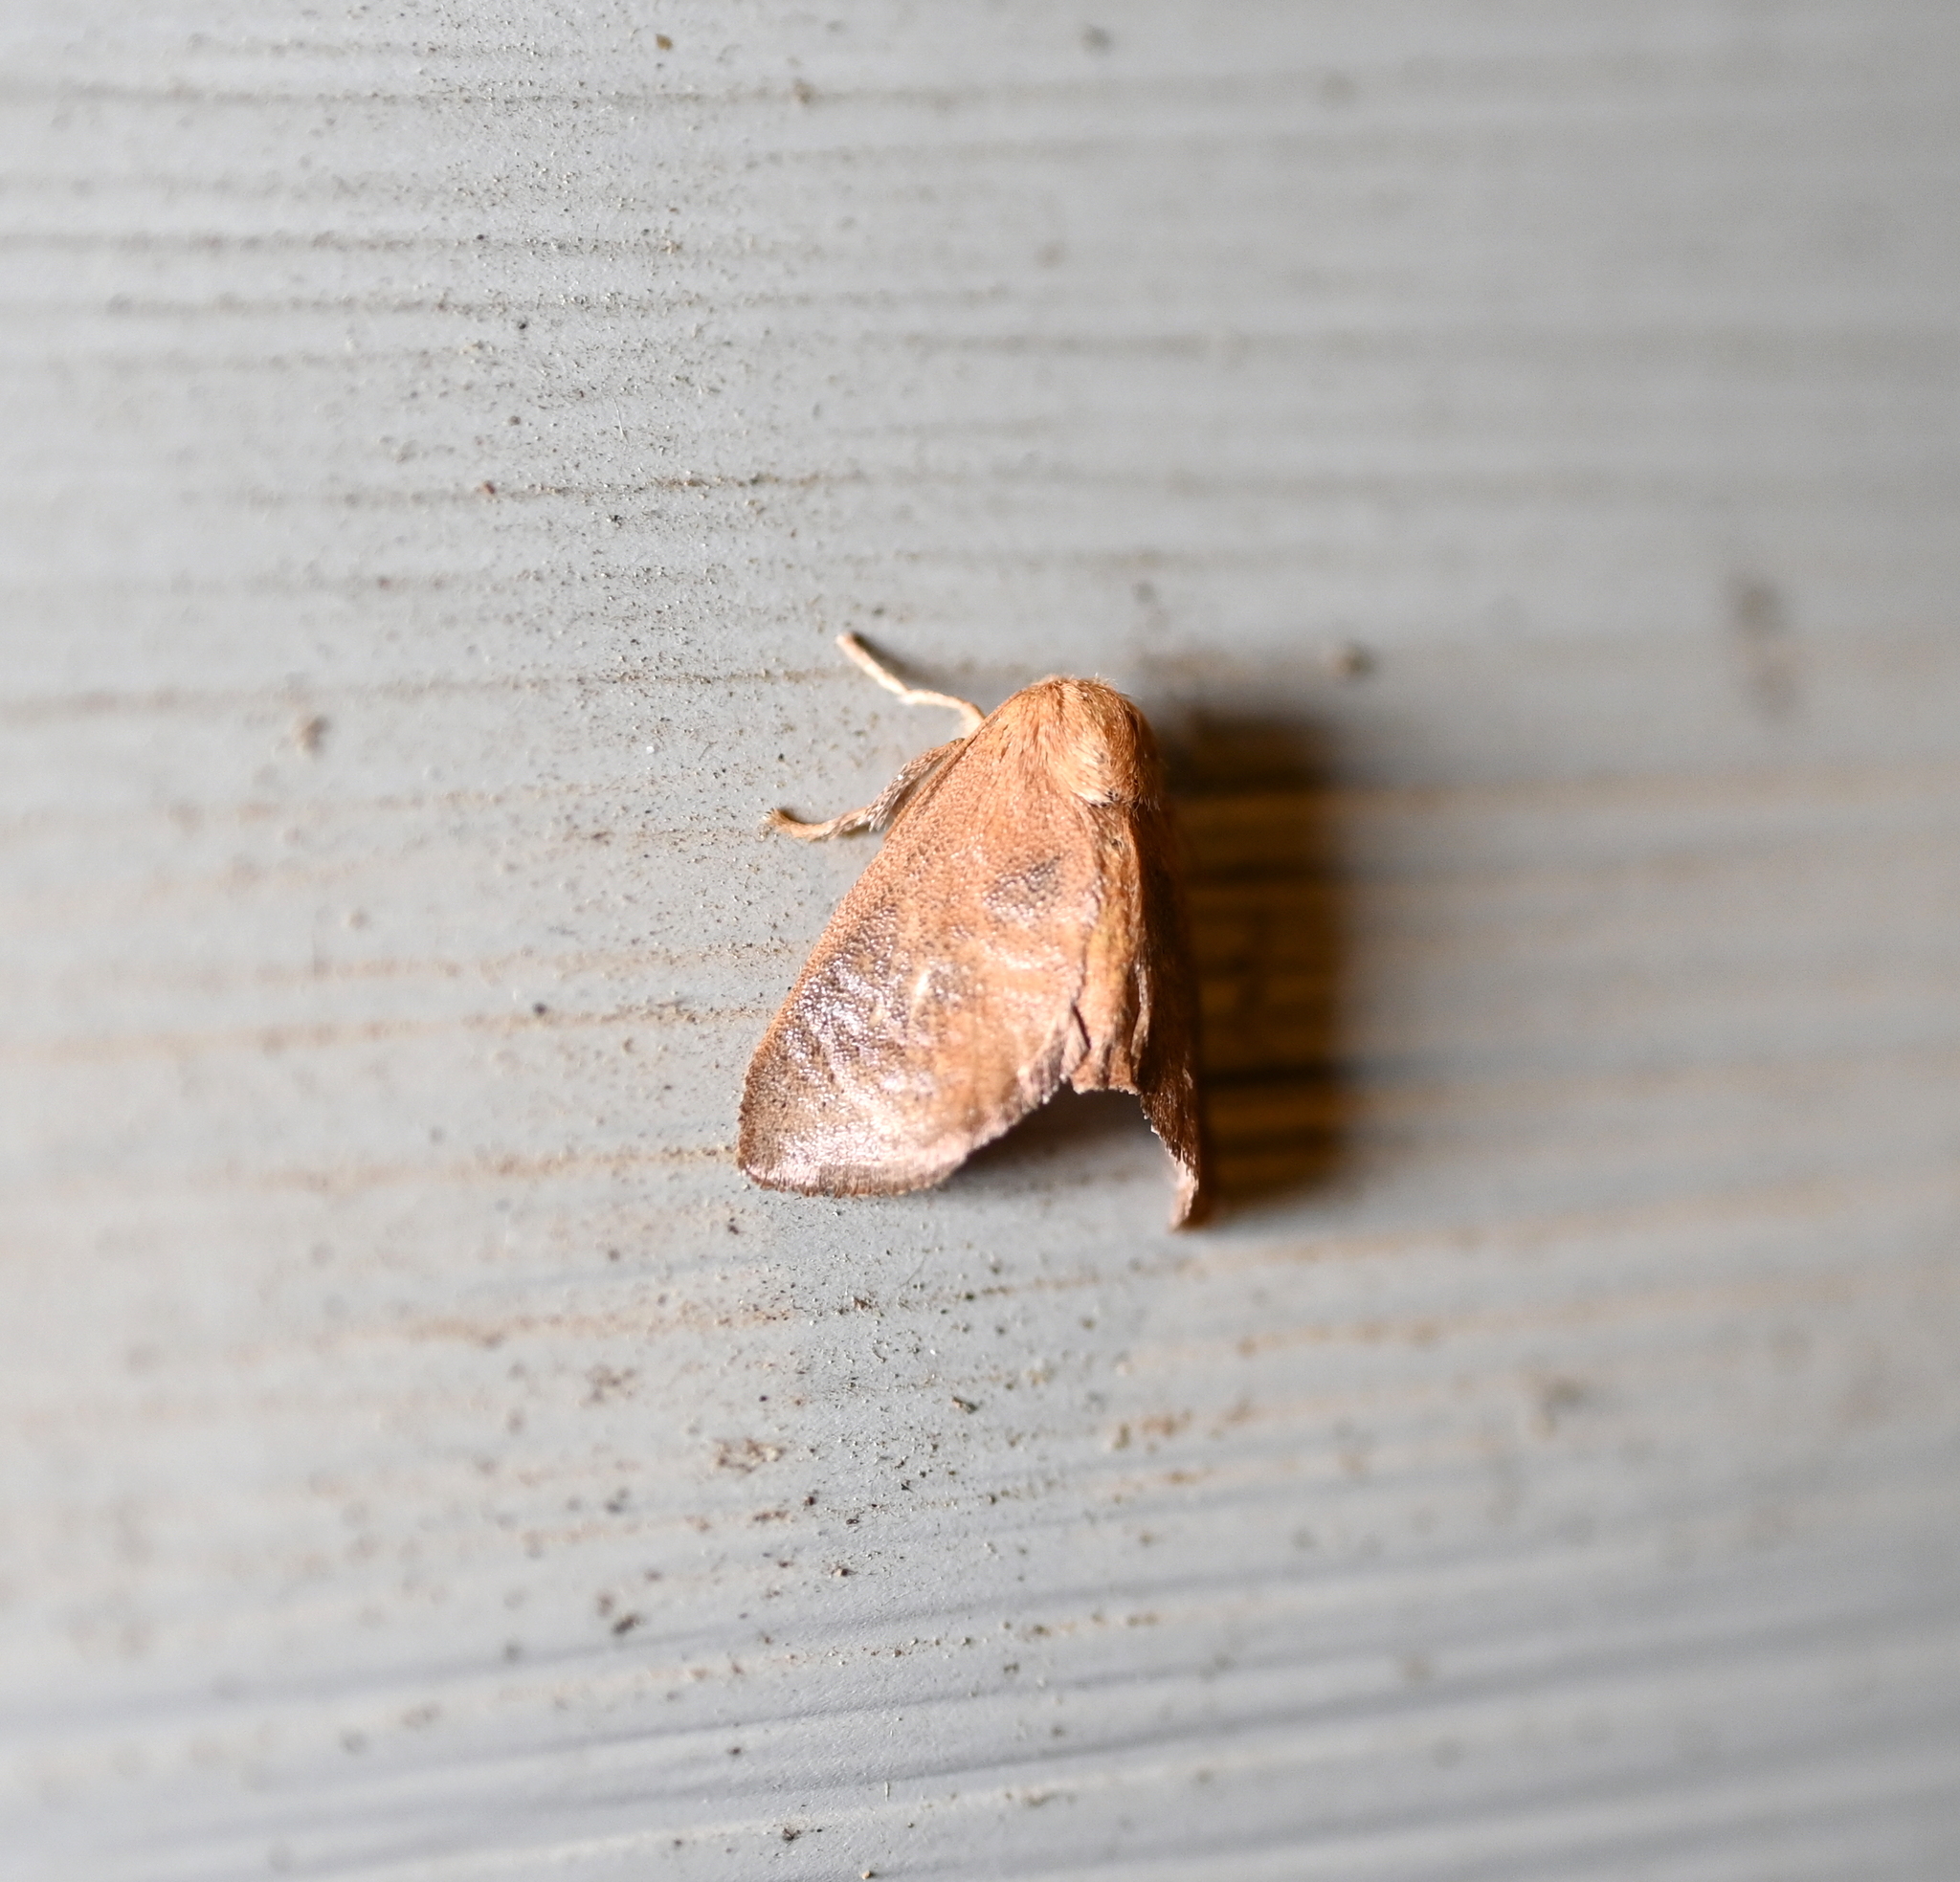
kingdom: Animalia
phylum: Arthropoda
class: Insecta
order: Lepidoptera
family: Limacodidae
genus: Isa
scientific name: Isa textula
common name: Crowned slug moth
